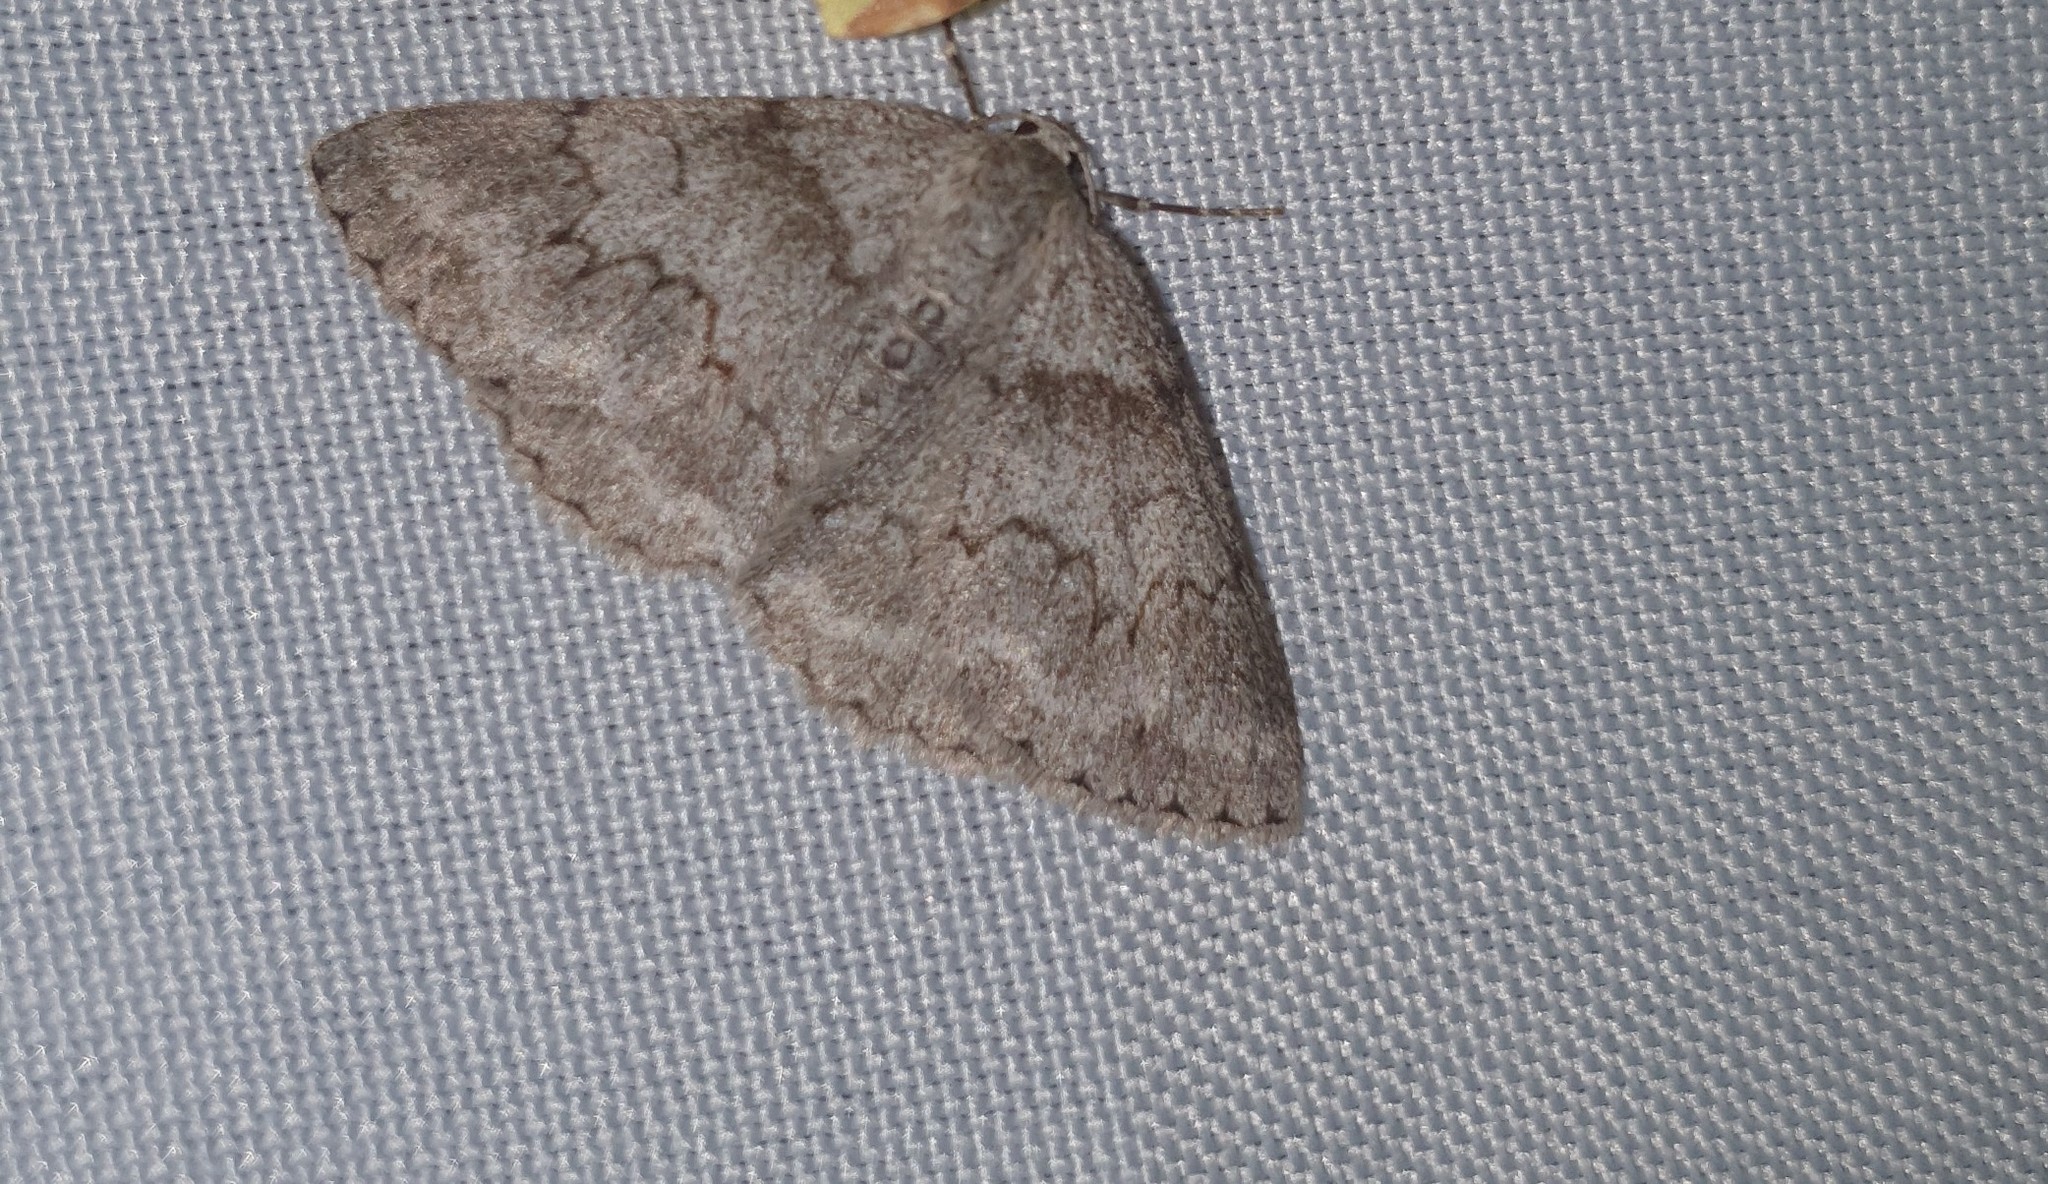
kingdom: Animalia
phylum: Arthropoda
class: Insecta
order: Lepidoptera
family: Geometridae
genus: Pseudoterpna
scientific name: Pseudoterpna coronillaria
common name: Jersey emerald
